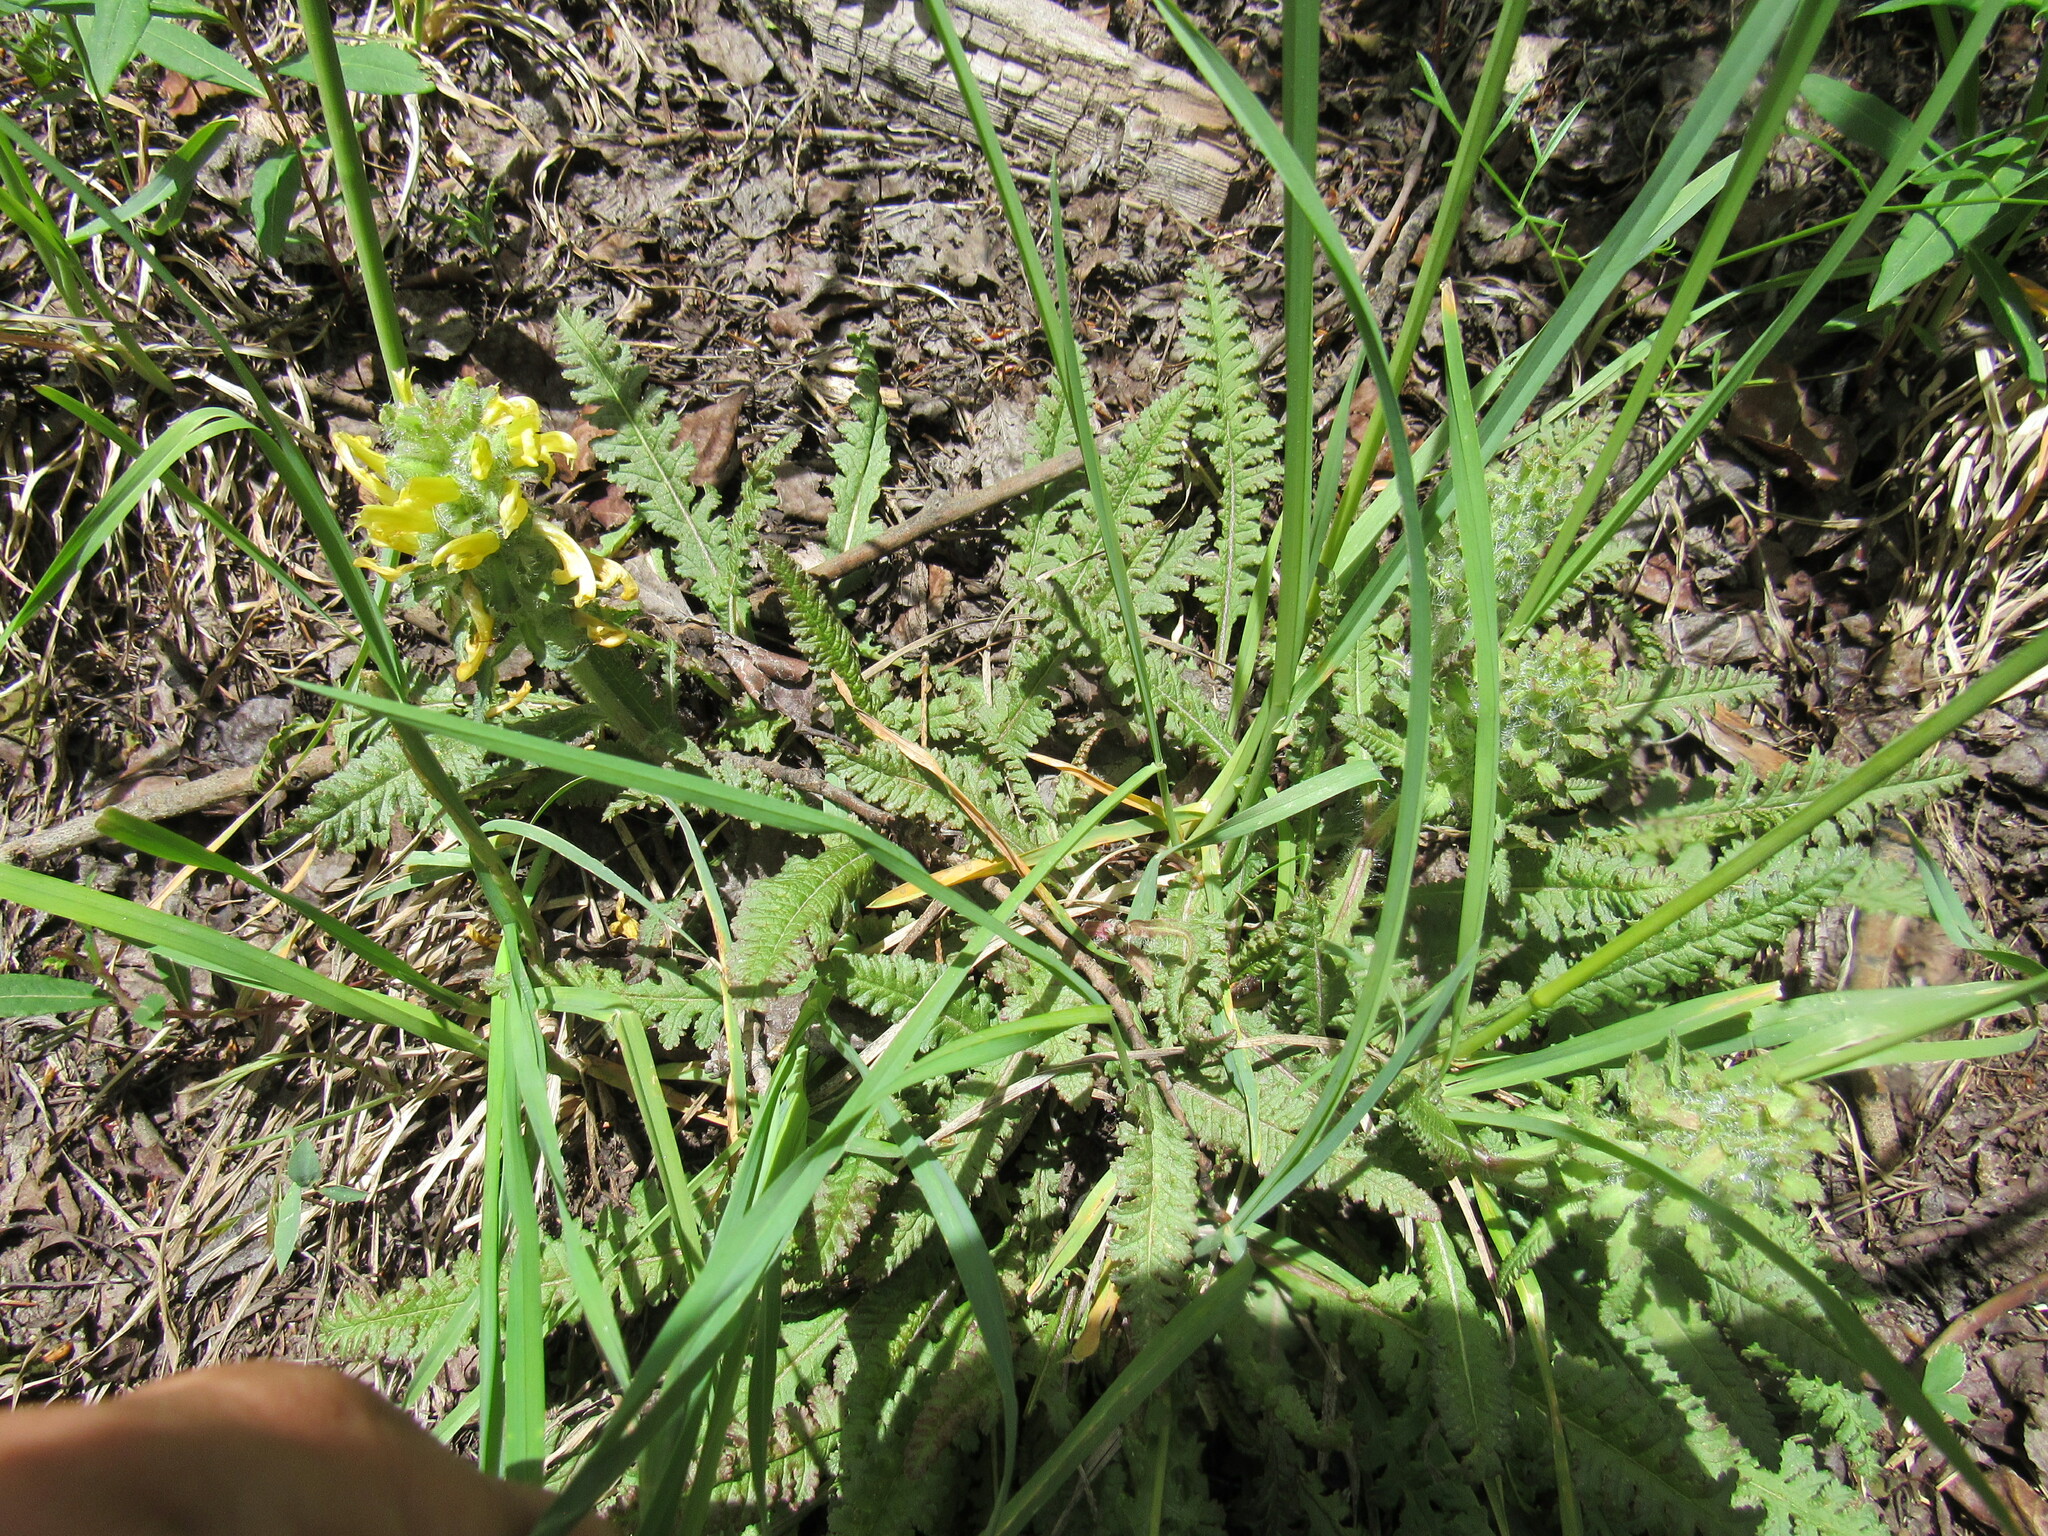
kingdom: Plantae
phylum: Tracheophyta
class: Magnoliopsida
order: Lamiales
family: Orobanchaceae
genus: Pedicularis
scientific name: Pedicularis canadensis
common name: Early lousewort
